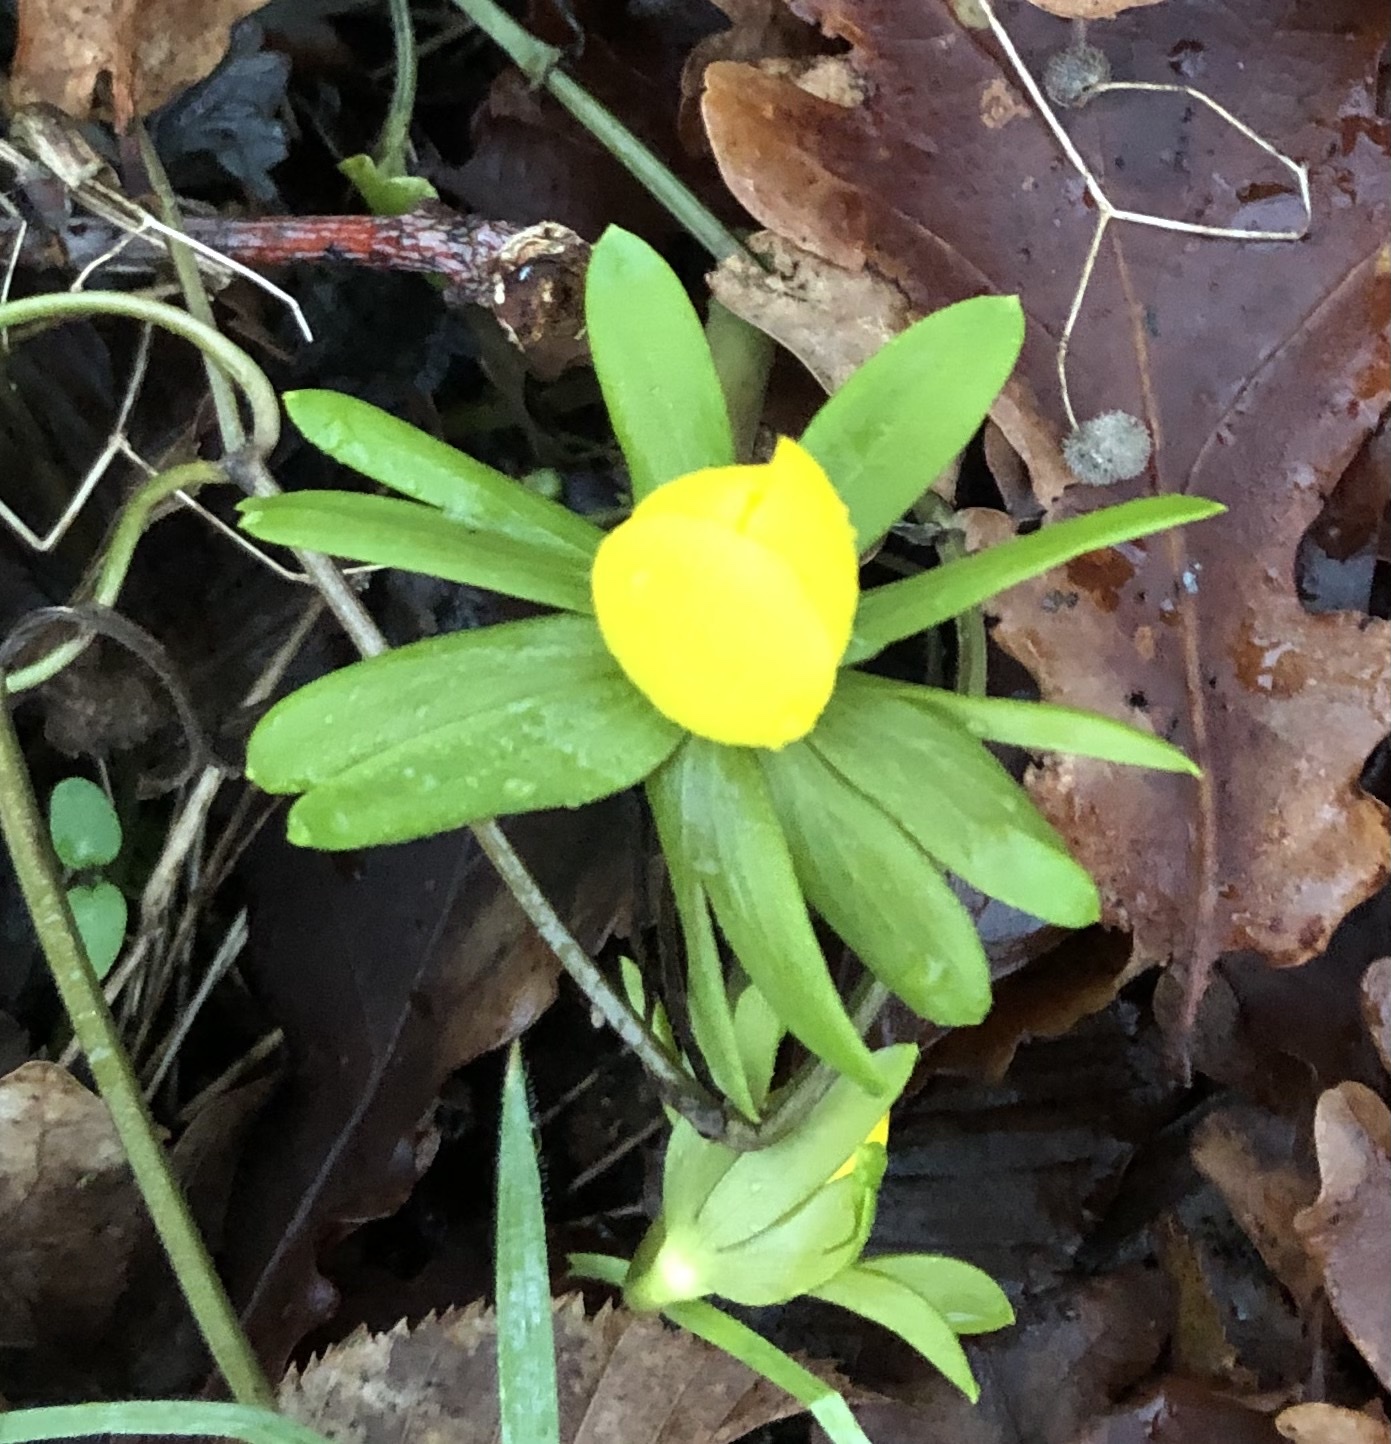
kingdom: Plantae
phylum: Tracheophyta
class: Magnoliopsida
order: Ranunculales
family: Ranunculaceae
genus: Eranthis
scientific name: Eranthis hyemalis
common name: Winter aconite
